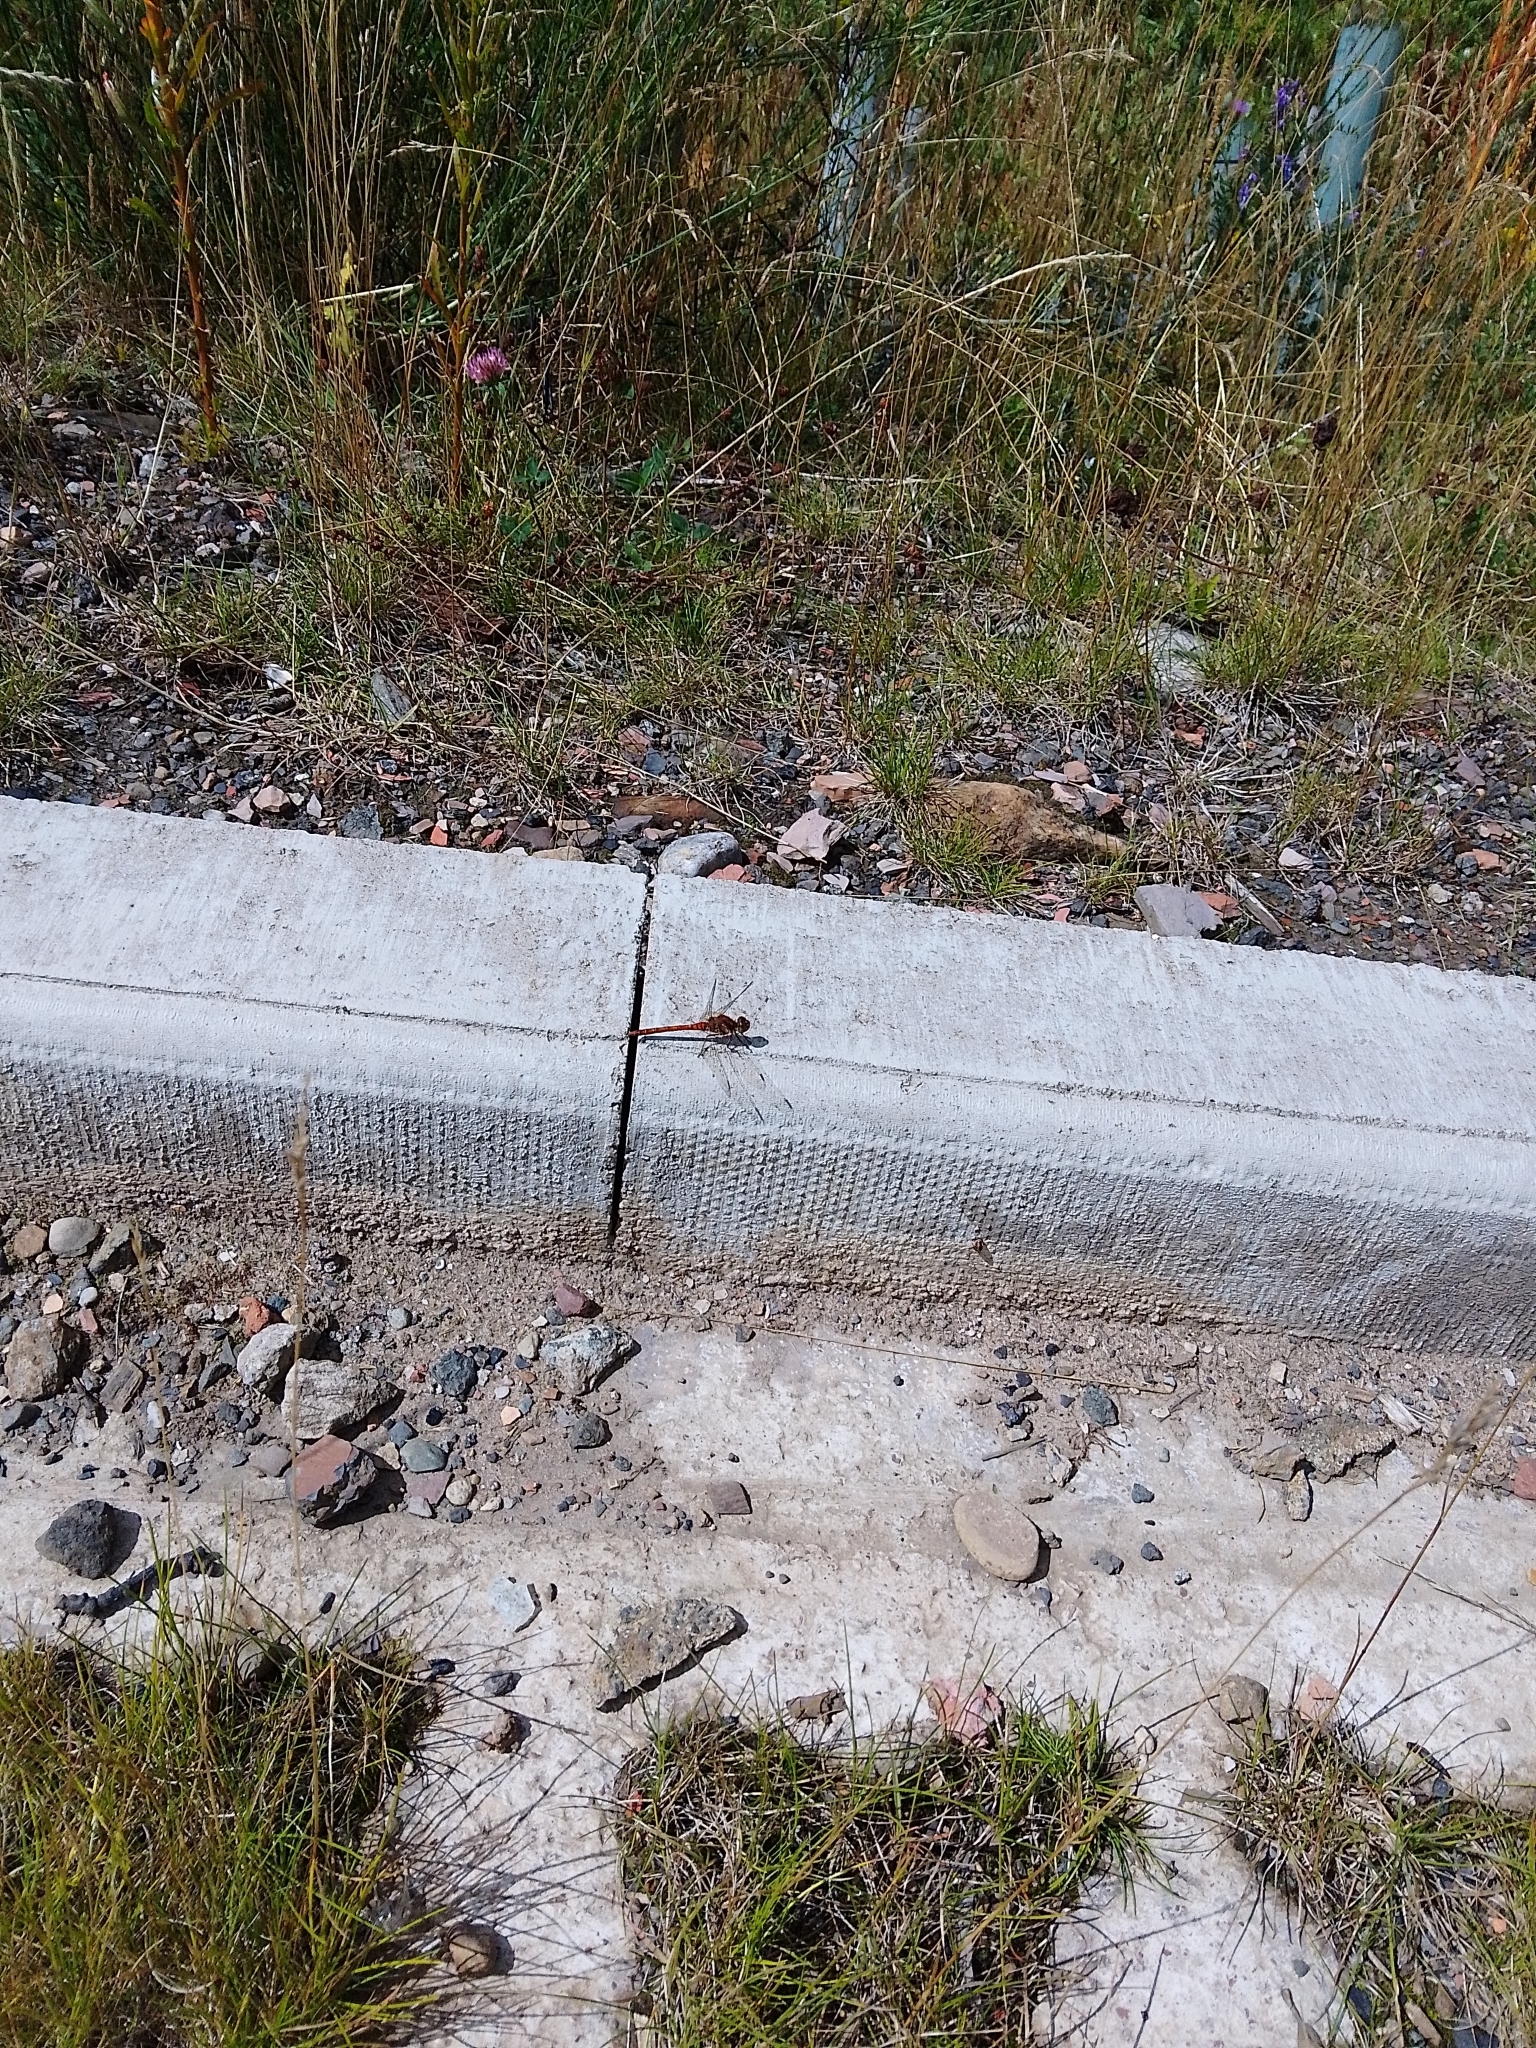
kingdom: Animalia
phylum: Arthropoda
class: Insecta
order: Odonata
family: Libellulidae
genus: Sympetrum
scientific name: Sympetrum striolatum
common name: Common darter
